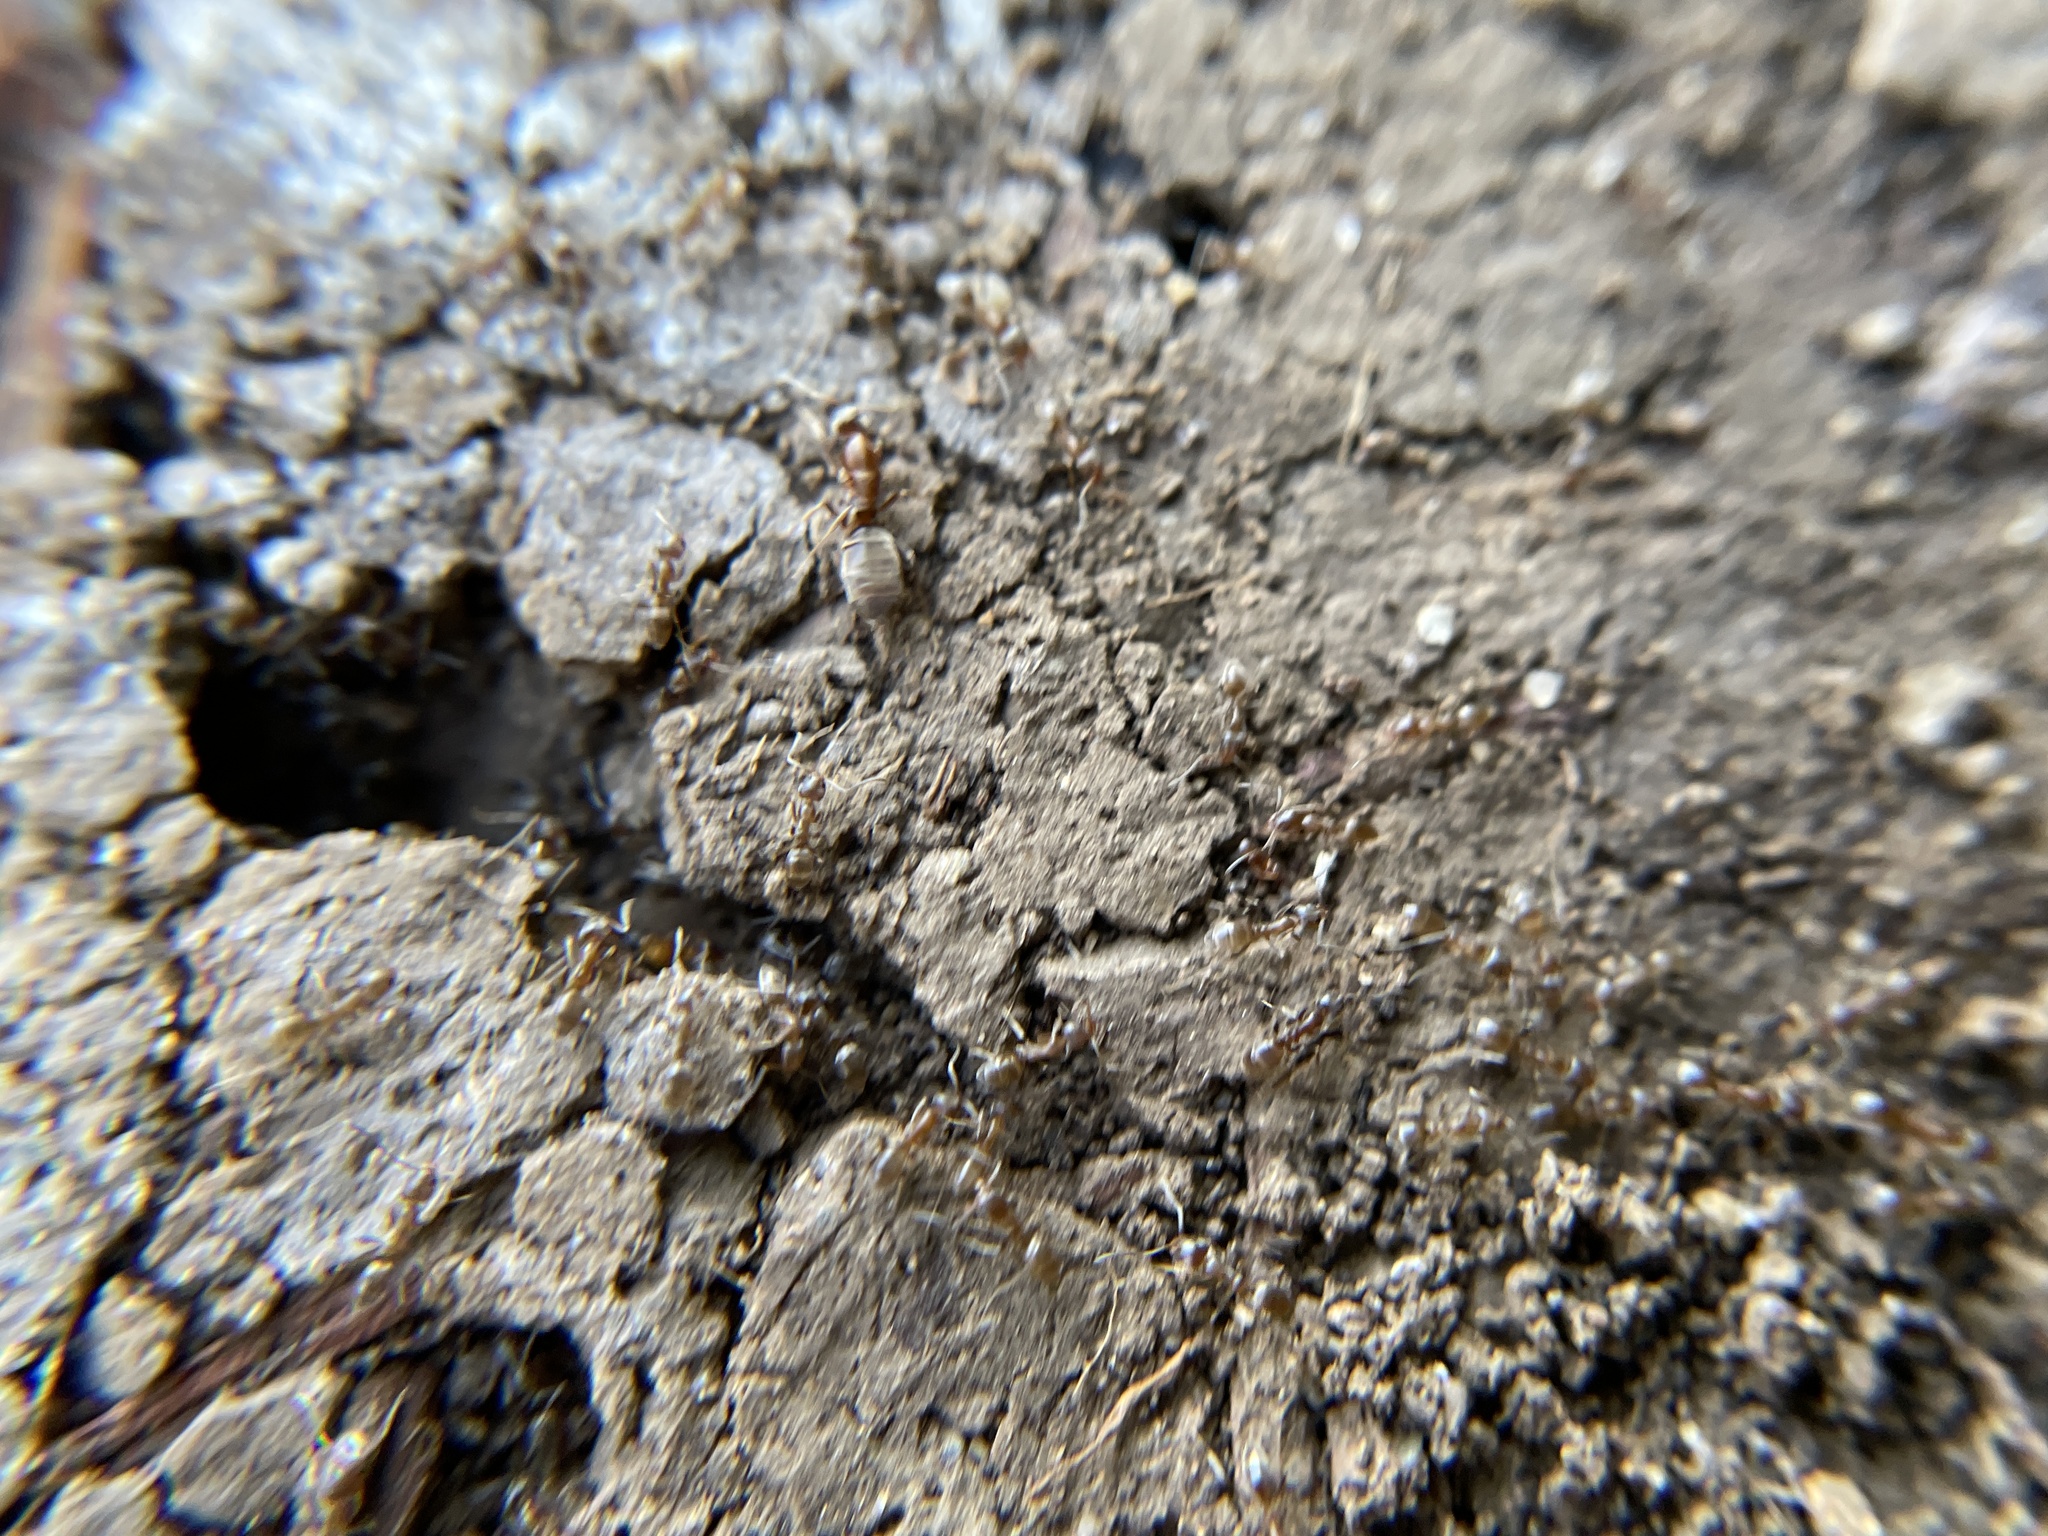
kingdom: Animalia
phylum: Arthropoda
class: Insecta
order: Hymenoptera
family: Formicidae
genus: Linepithema
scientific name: Linepithema humile
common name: Argentine ant
